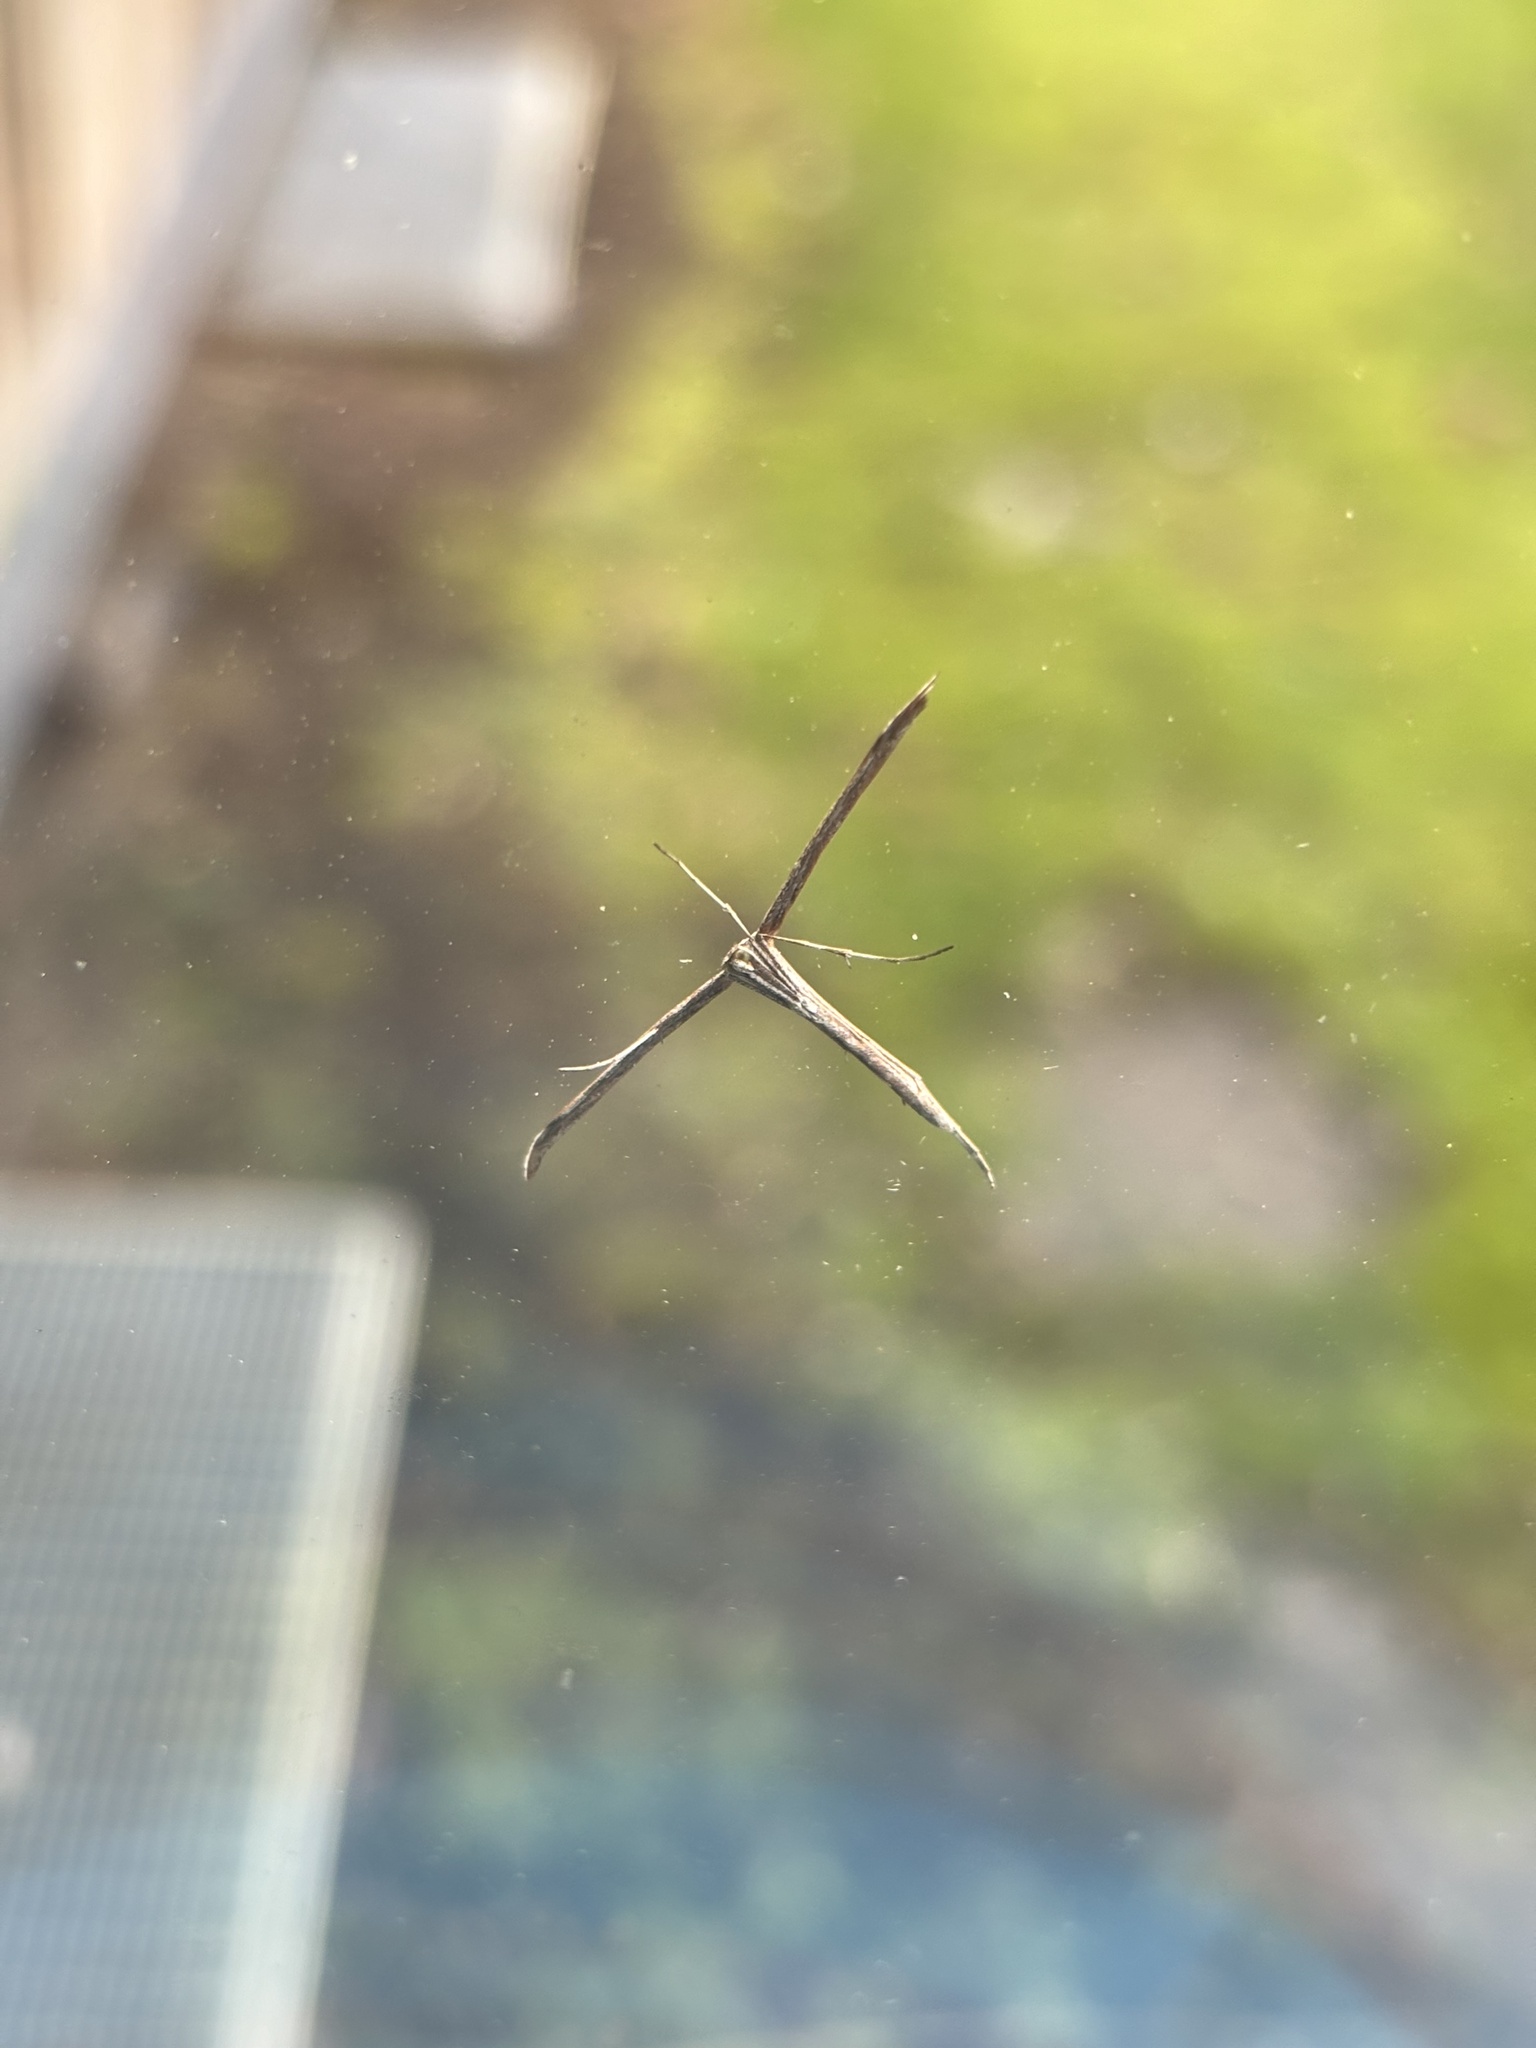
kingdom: Animalia
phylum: Arthropoda
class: Insecta
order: Lepidoptera
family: Pterophoridae
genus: Emmelina
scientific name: Emmelina monodactyla
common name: Common plume
